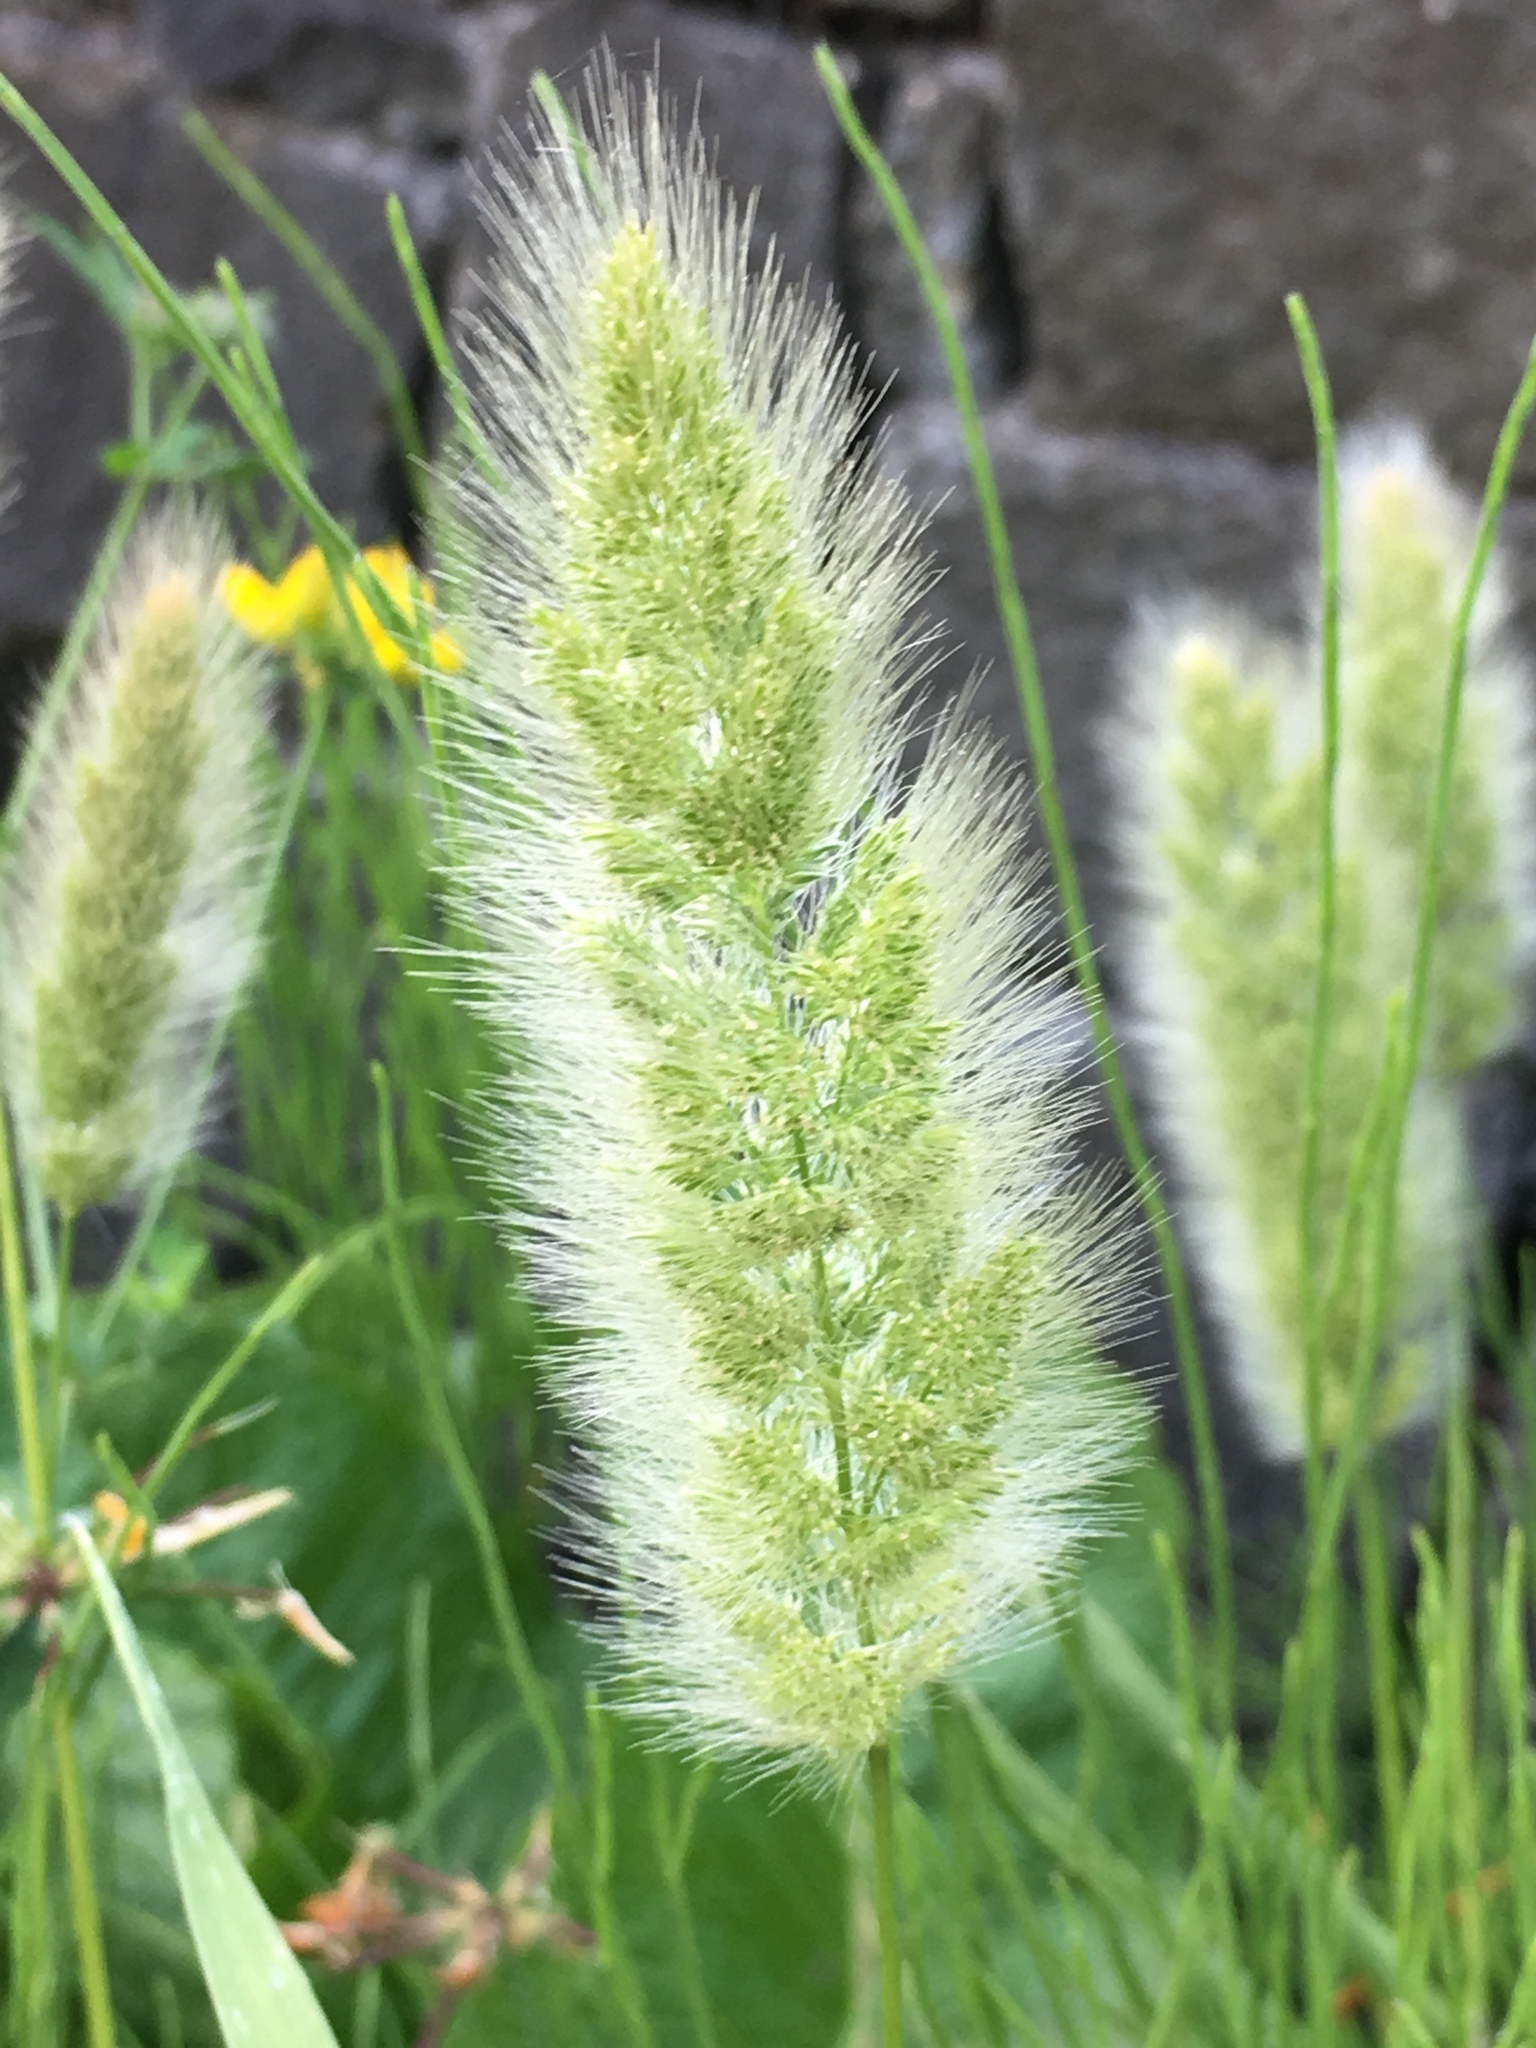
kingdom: Plantae
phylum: Tracheophyta
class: Liliopsida
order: Poales
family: Poaceae
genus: Polypogon
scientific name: Polypogon monspeliensis
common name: Annual rabbitsfoot grass
